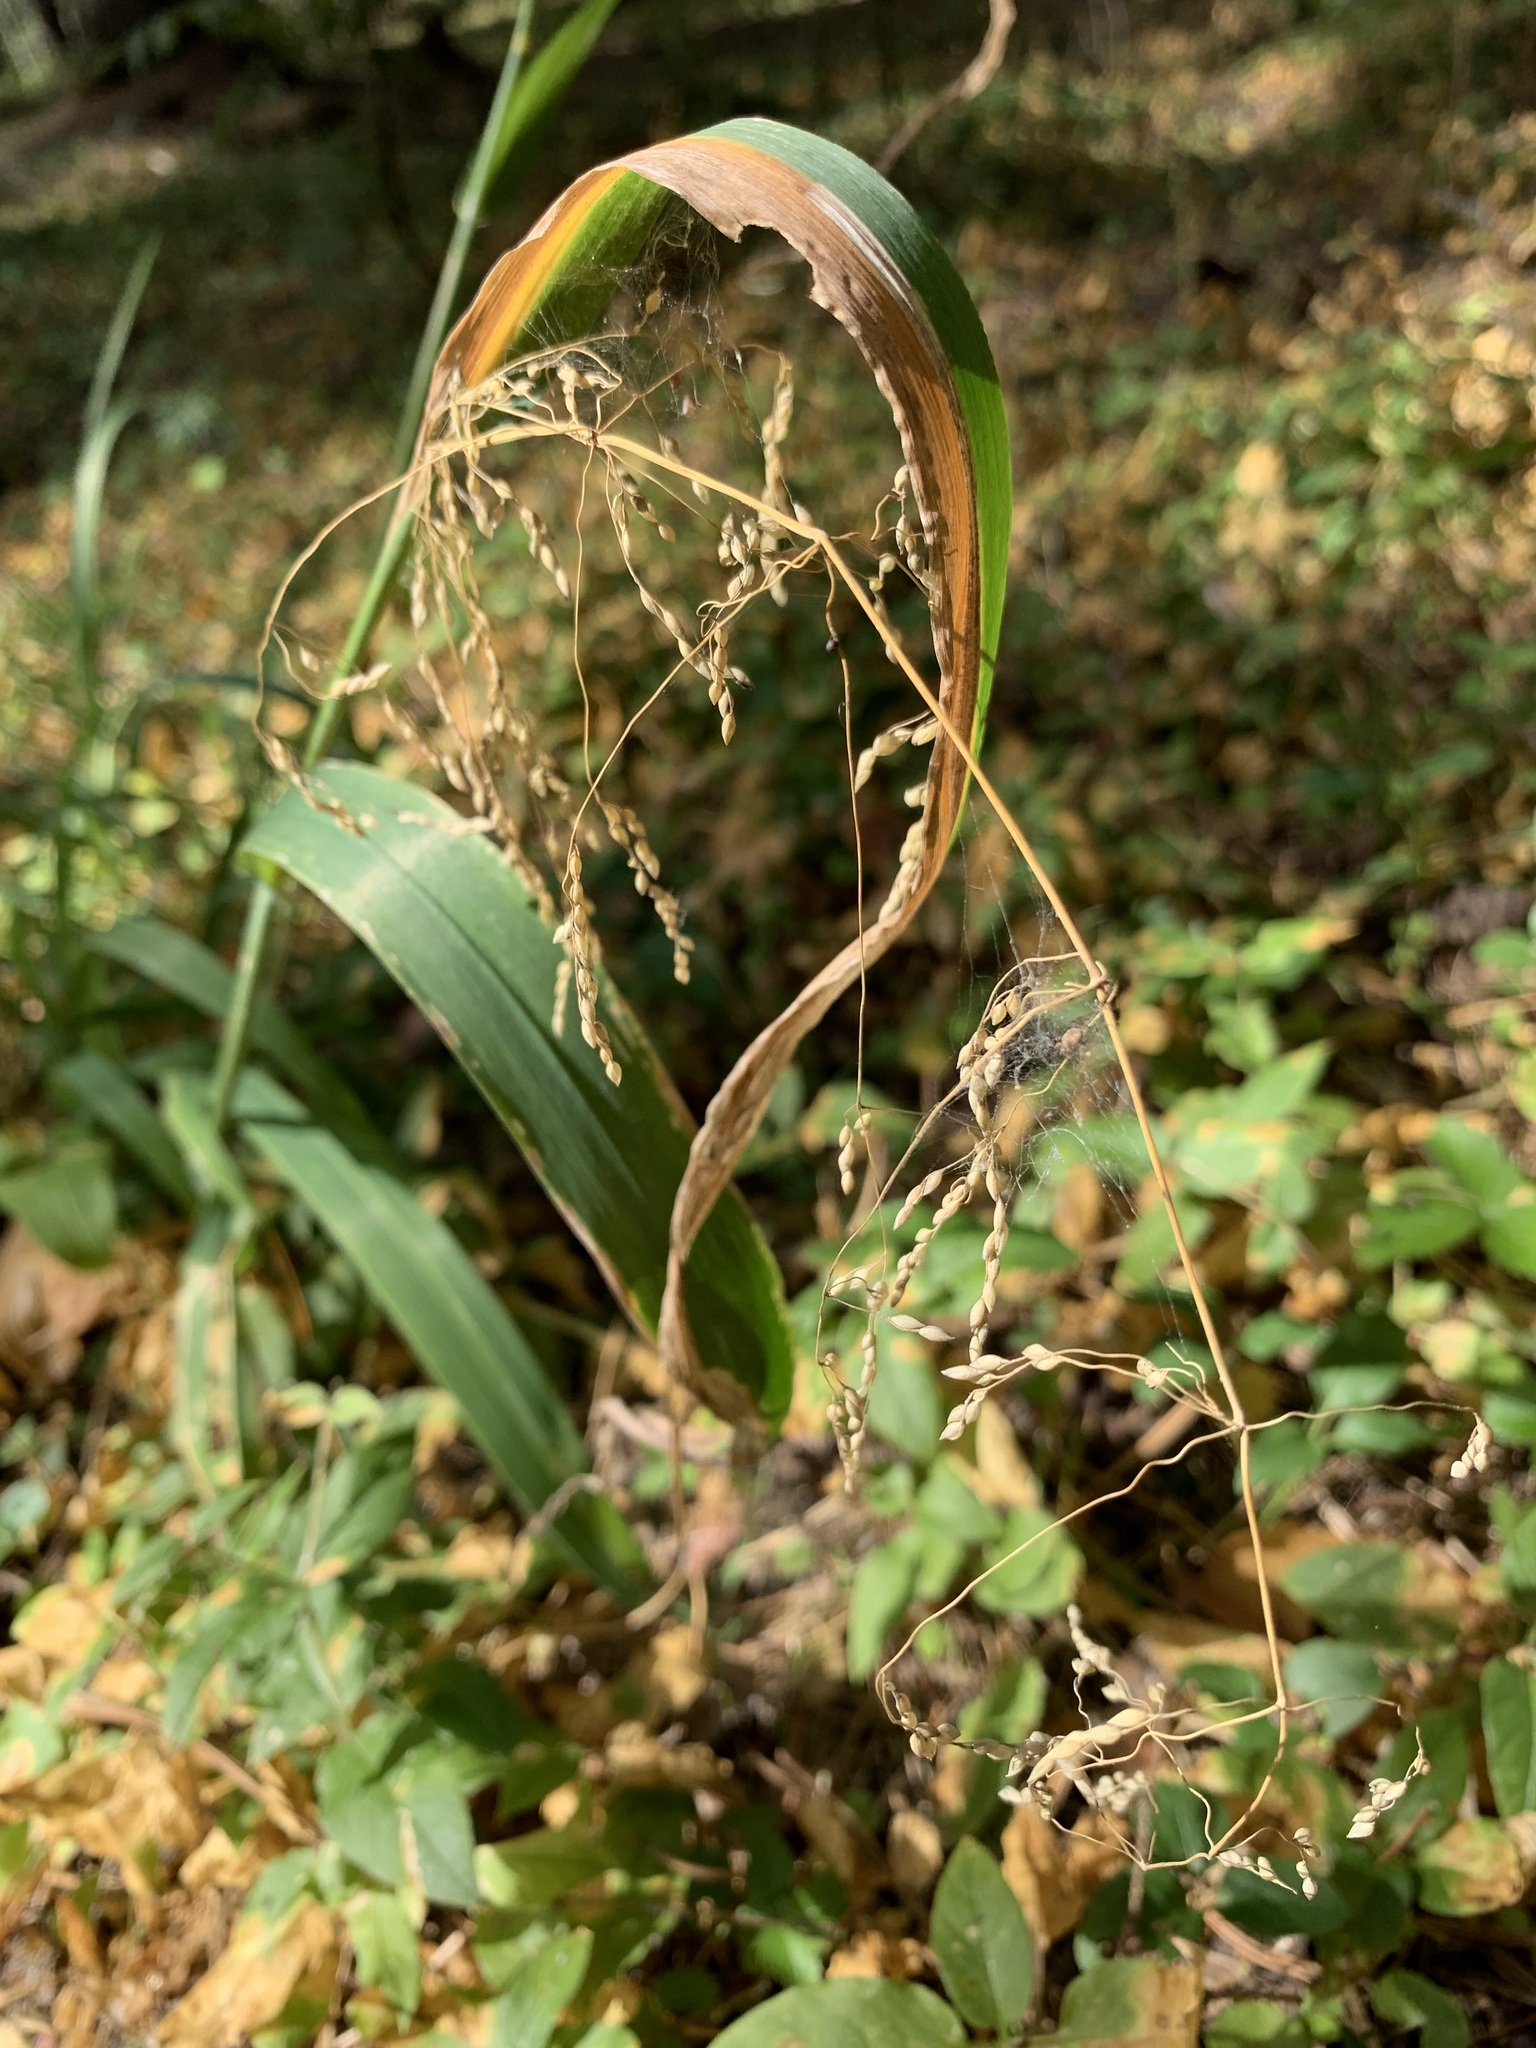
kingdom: Plantae
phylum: Tracheophyta
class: Liliopsida
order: Poales
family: Poaceae
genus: Milium
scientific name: Milium effusum
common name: Wood millet
